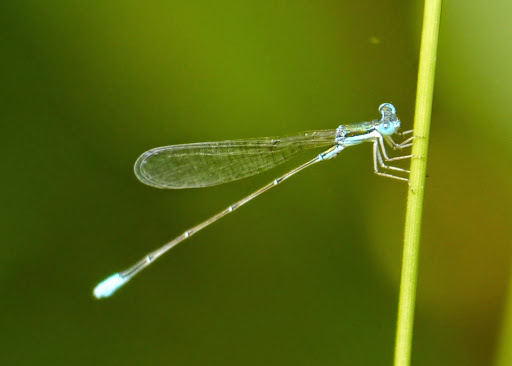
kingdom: Animalia
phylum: Arthropoda
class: Insecta
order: Odonata
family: Coenagrionidae
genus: Nehalennia
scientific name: Nehalennia gracilis
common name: Sphagnum sprite
